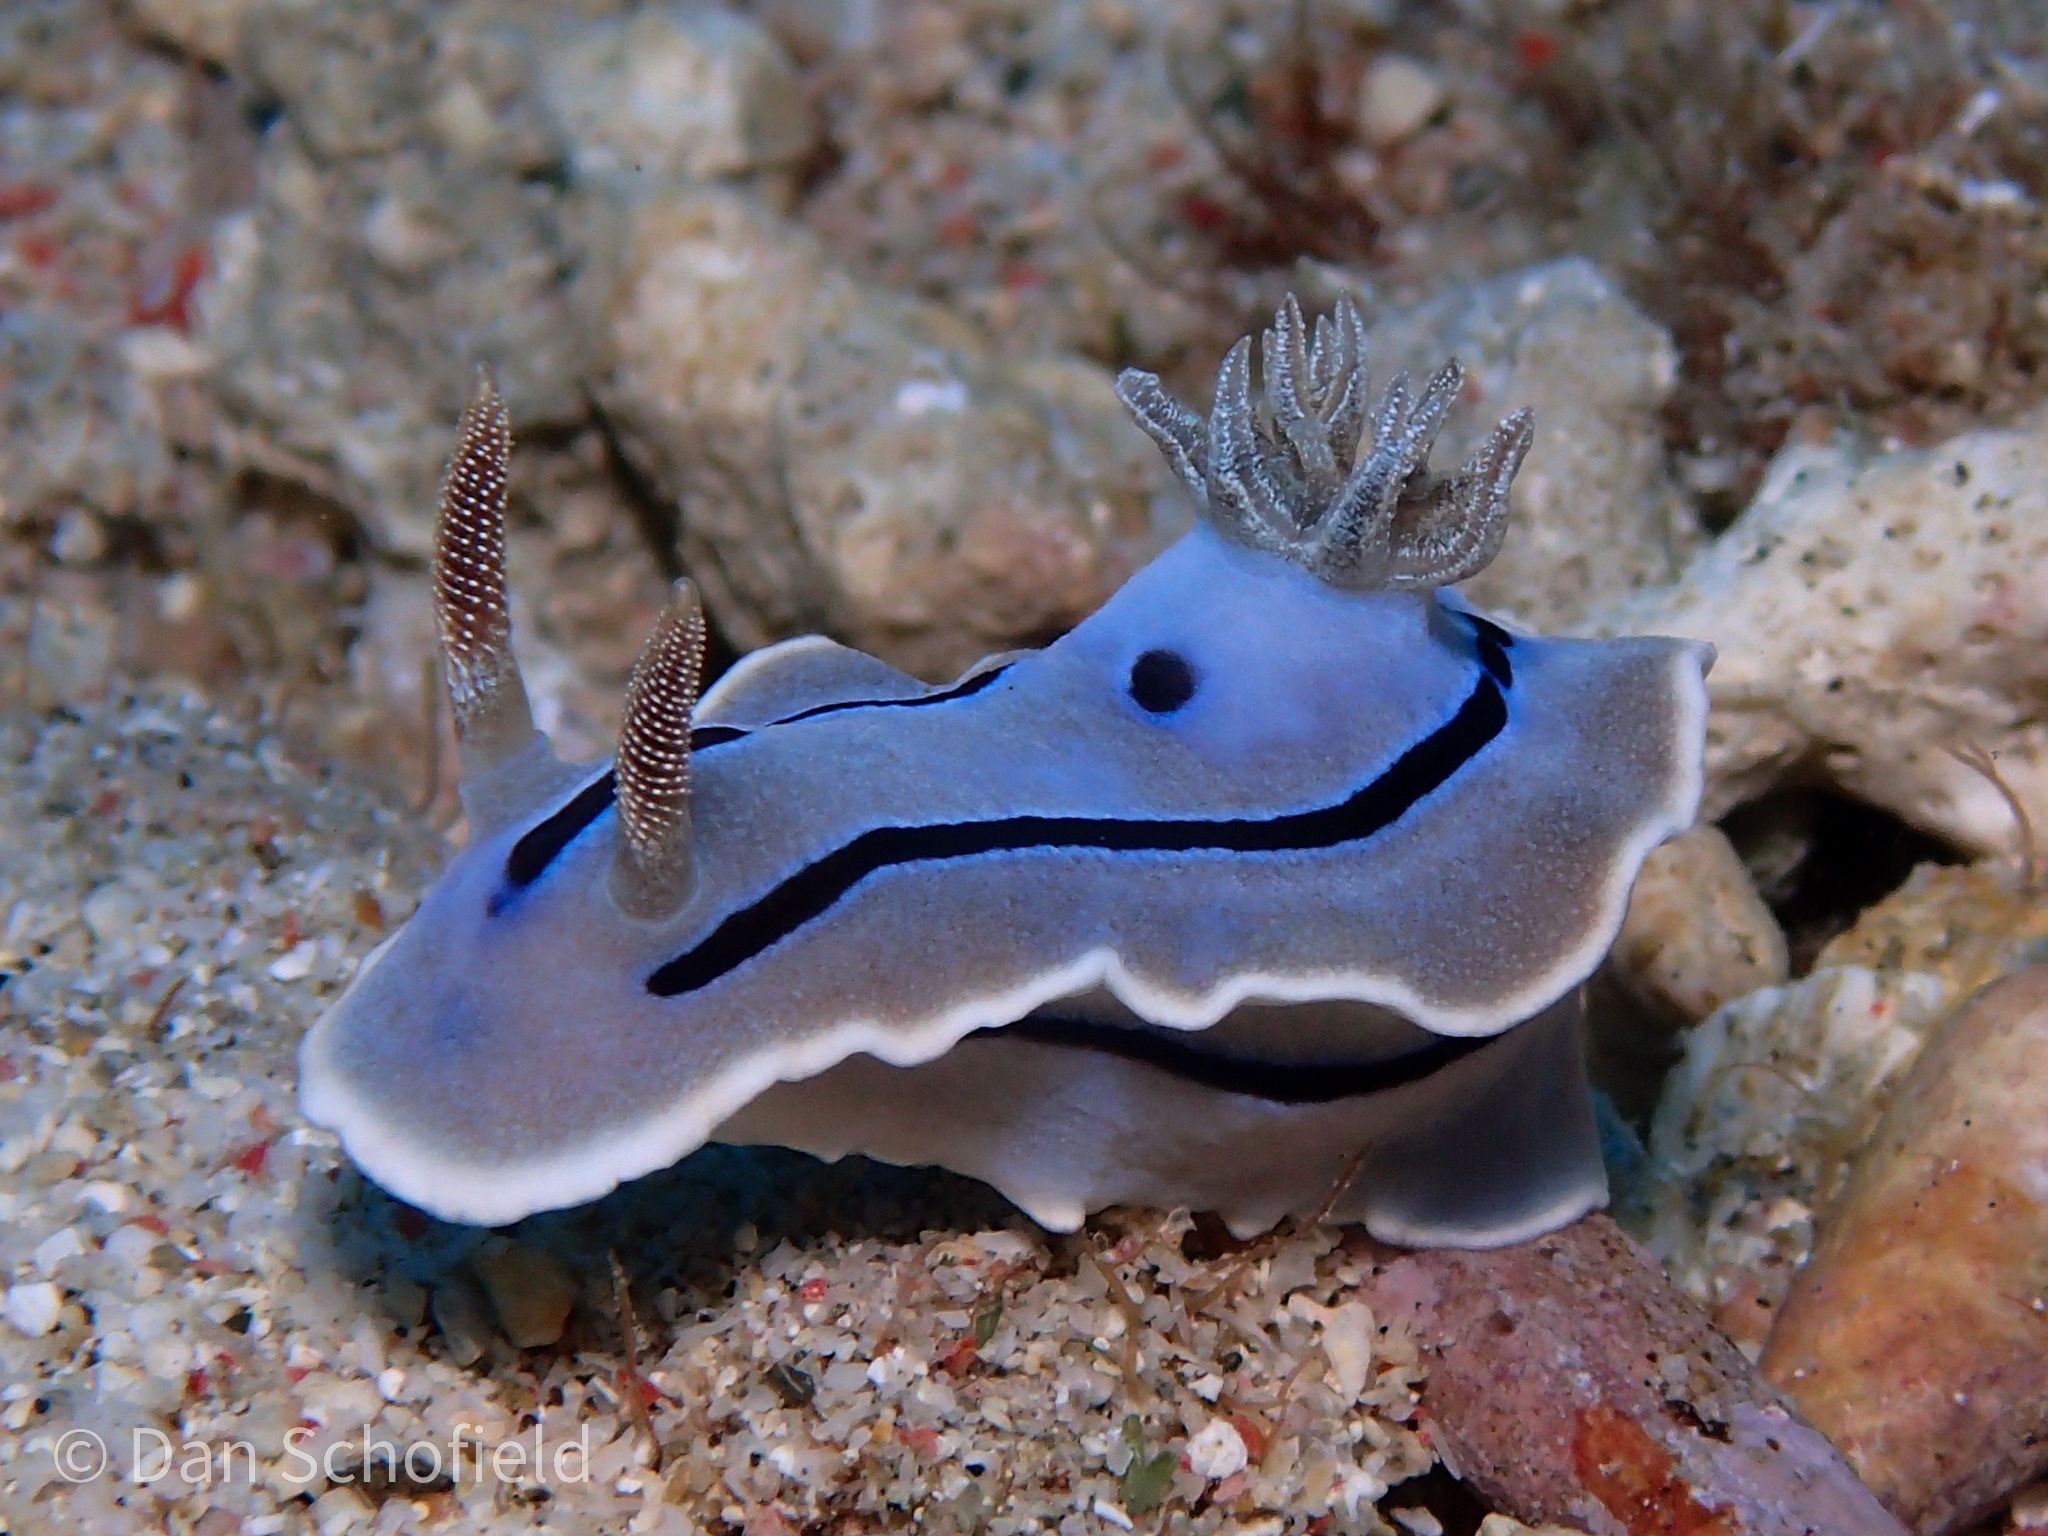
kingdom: Animalia
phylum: Mollusca
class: Gastropoda
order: Nudibranchia
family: Chromodorididae
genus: Chromodoris
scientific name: Chromodoris willani
